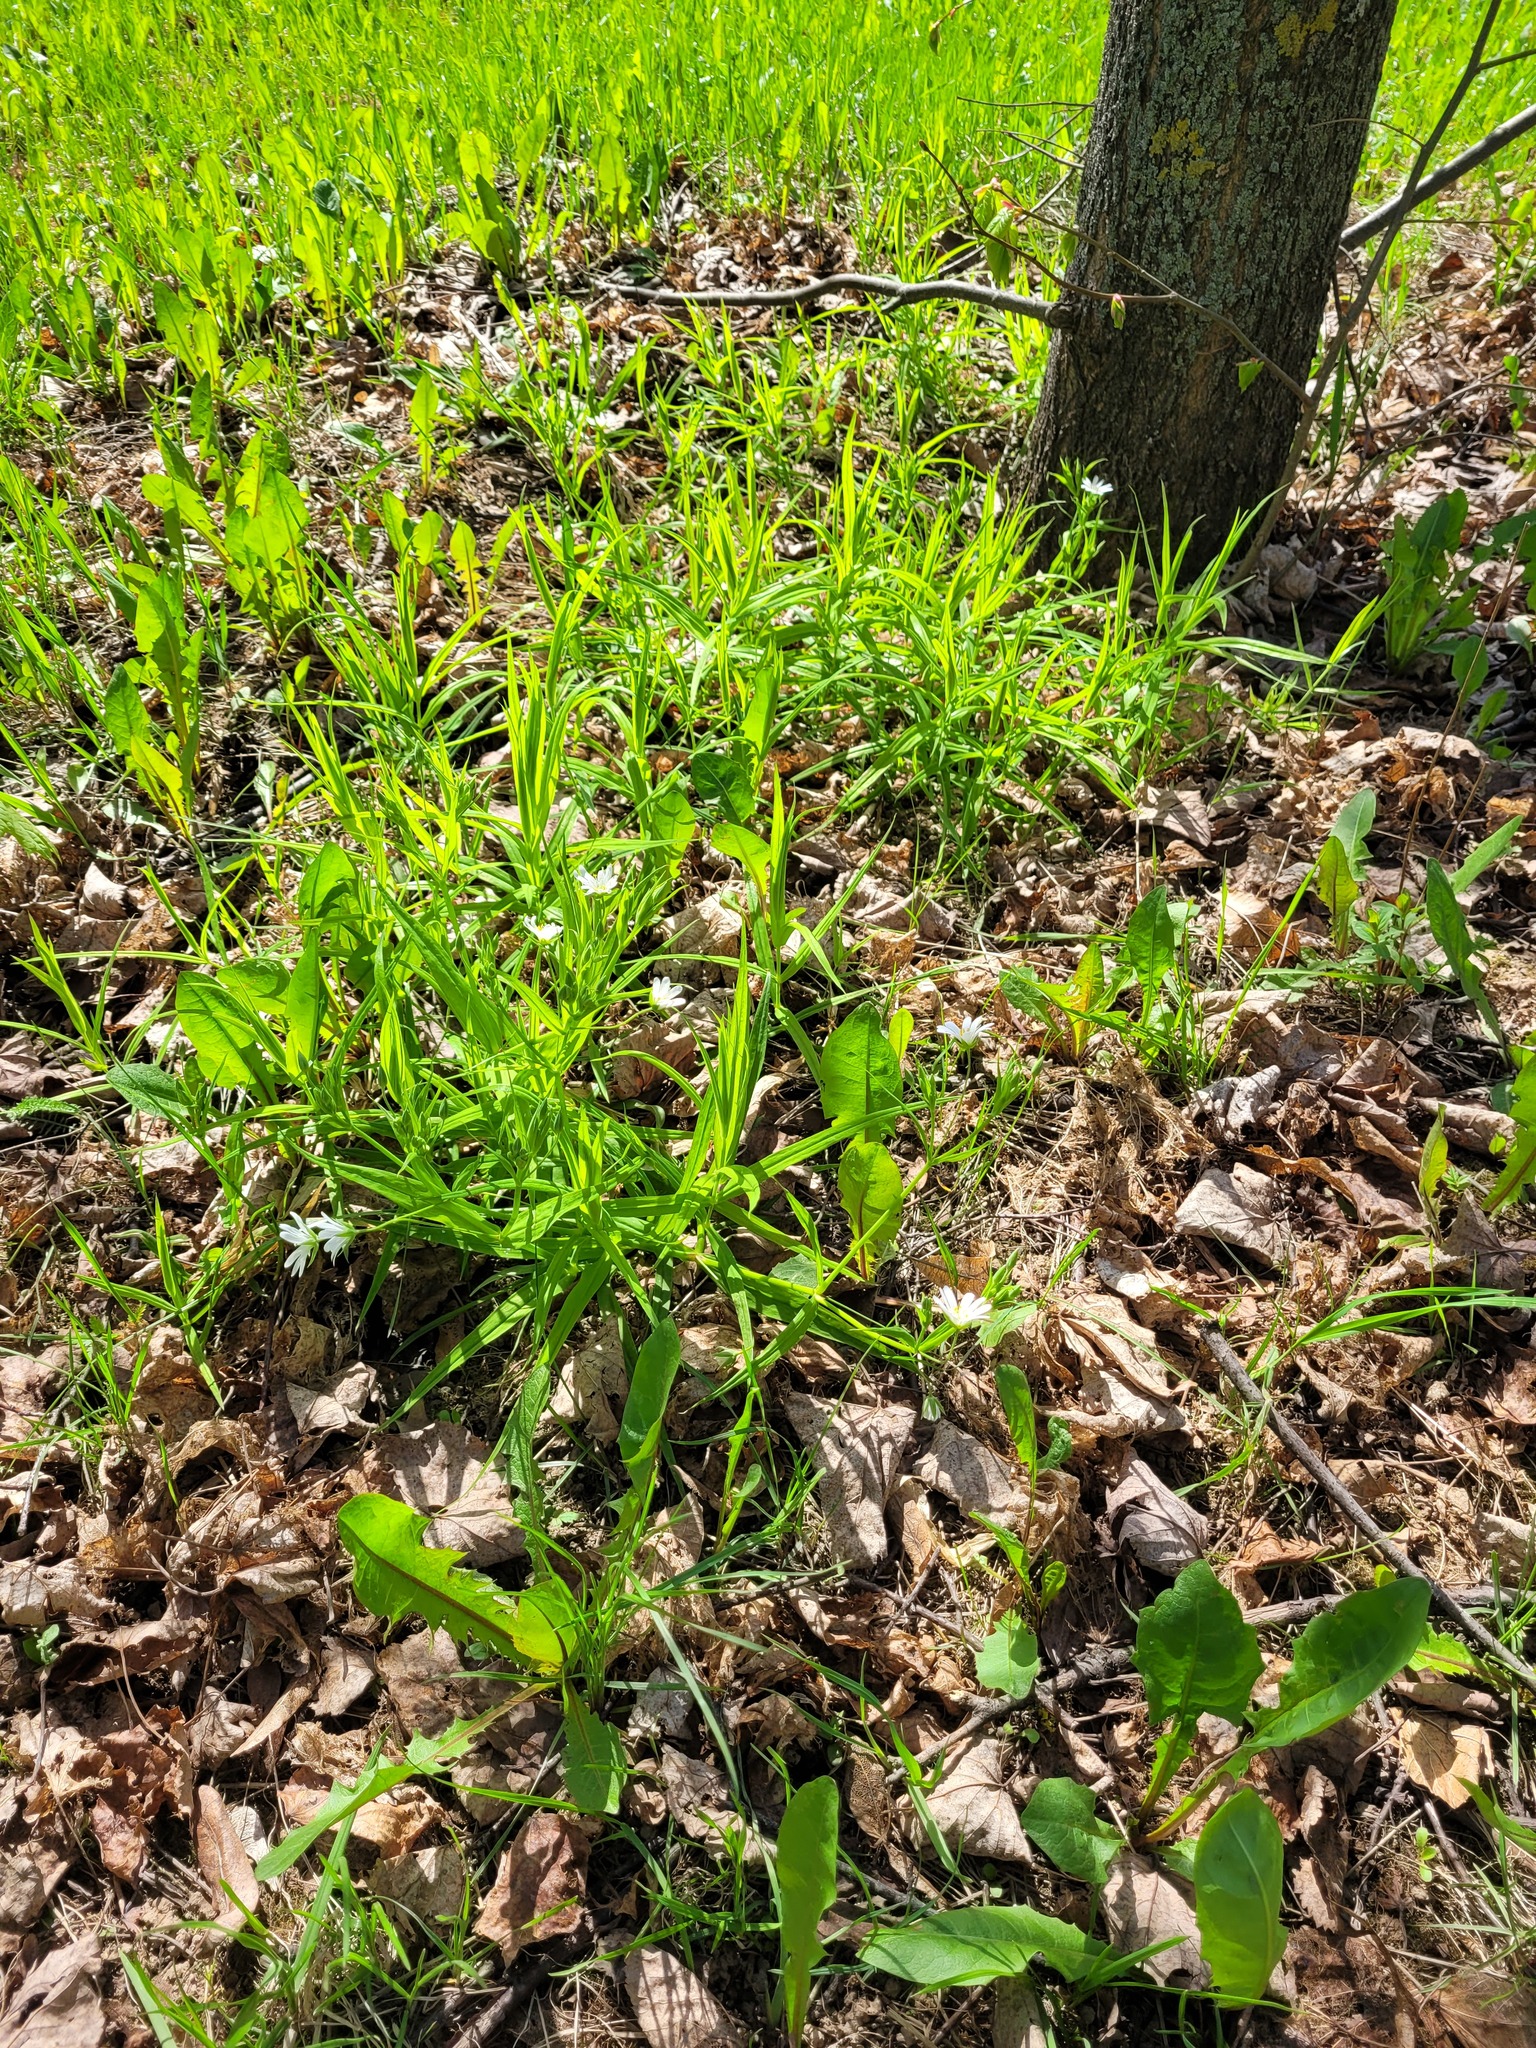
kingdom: Plantae
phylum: Tracheophyta
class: Magnoliopsida
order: Caryophyllales
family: Caryophyllaceae
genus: Rabelera
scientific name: Rabelera holostea
